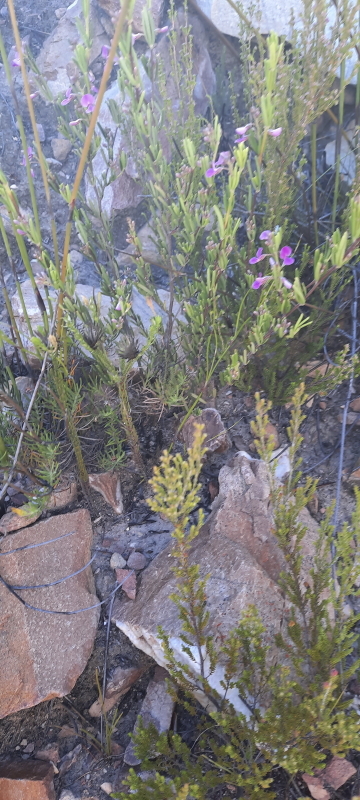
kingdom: Plantae
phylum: Tracheophyta
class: Magnoliopsida
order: Fabales
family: Fabaceae
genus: Indigofera
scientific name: Indigofera sulcata
